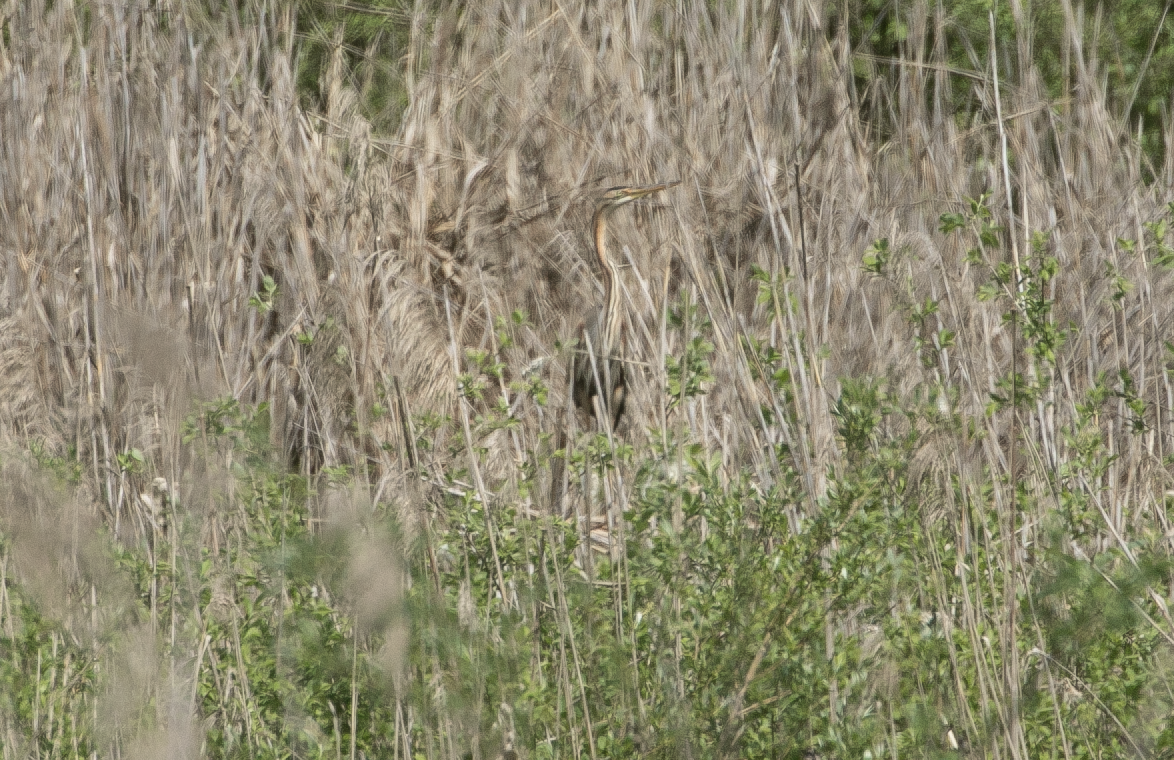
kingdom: Animalia
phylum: Chordata
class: Aves
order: Pelecaniformes
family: Ardeidae
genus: Ardea
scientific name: Ardea purpurea
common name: Purple heron
